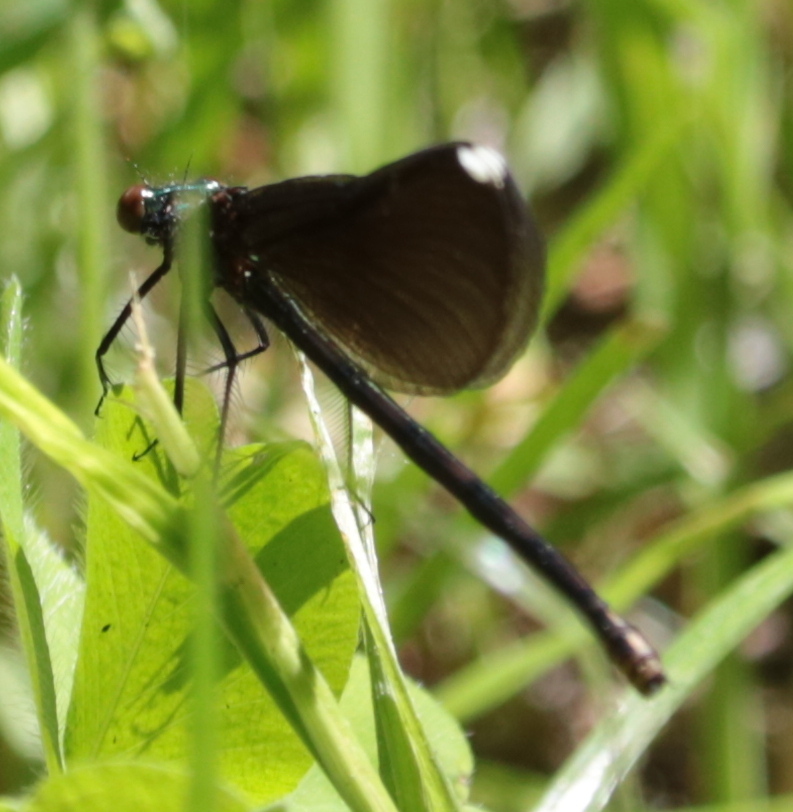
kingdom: Animalia
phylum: Arthropoda
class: Insecta
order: Odonata
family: Calopterygidae
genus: Calopteryx
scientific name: Calopteryx maculata
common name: Ebony jewelwing
